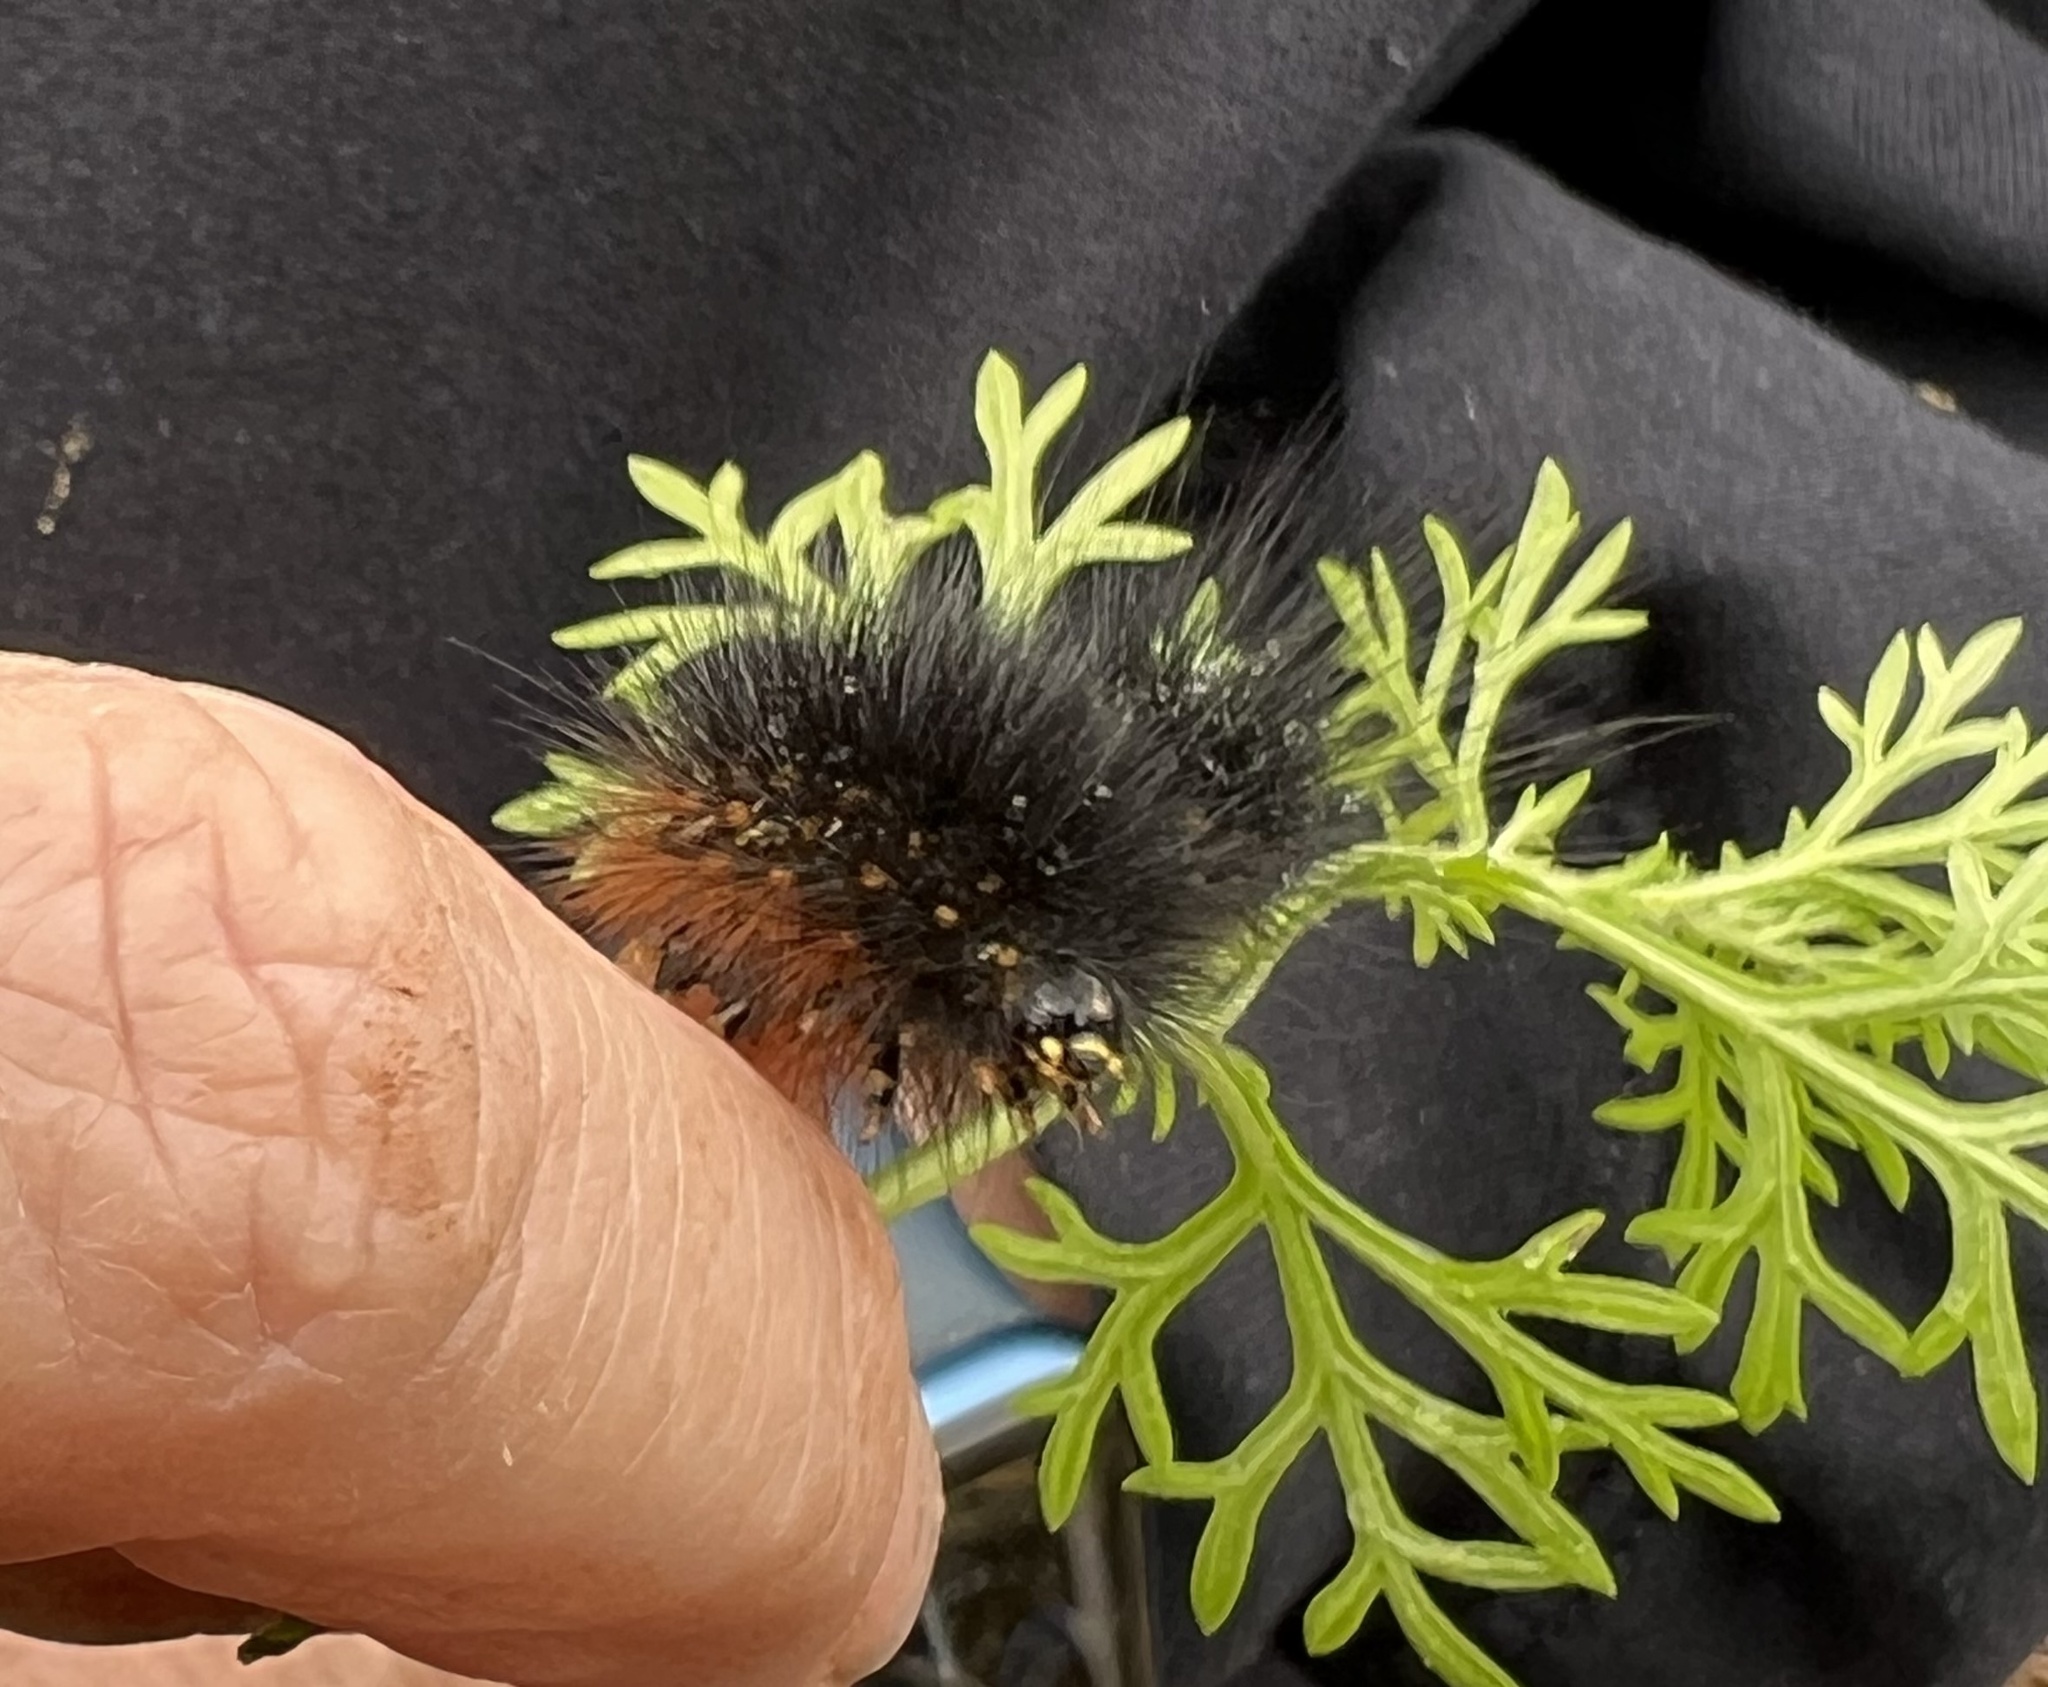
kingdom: Animalia
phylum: Arthropoda
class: Insecta
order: Lepidoptera
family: Erebidae
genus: Estigmene
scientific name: Estigmene acrea
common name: Salt marsh moth
